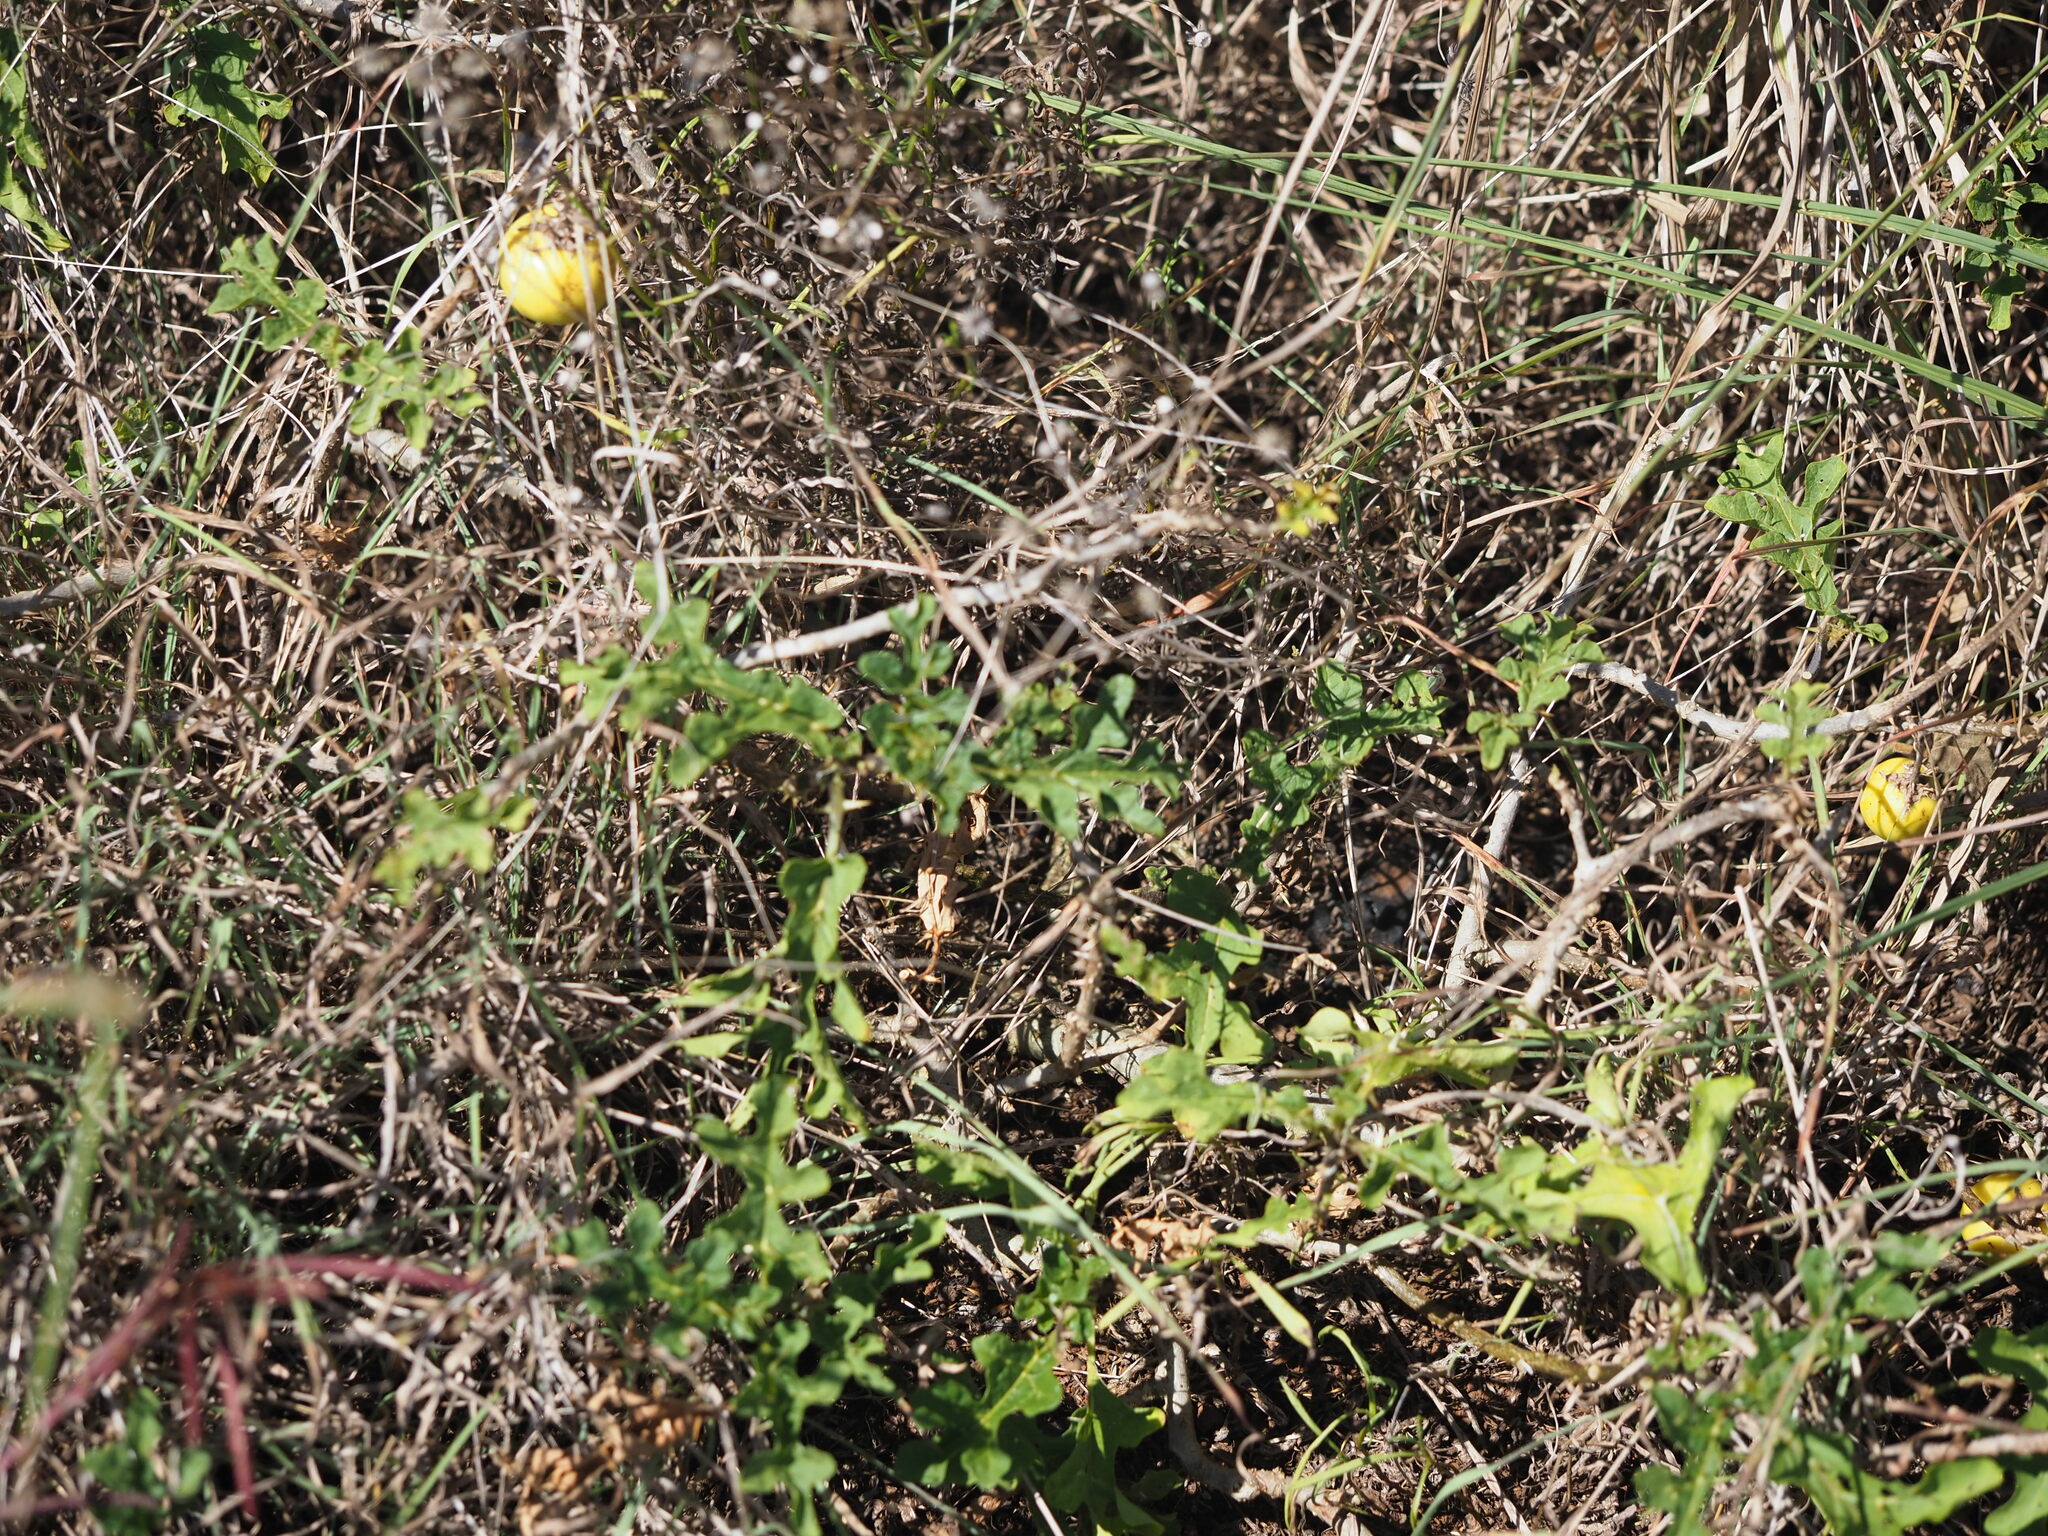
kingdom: Plantae
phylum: Tracheophyta
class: Magnoliopsida
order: Solanales
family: Solanaceae
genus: Solanum
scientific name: Solanum linnaeanum
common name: Nightshade
